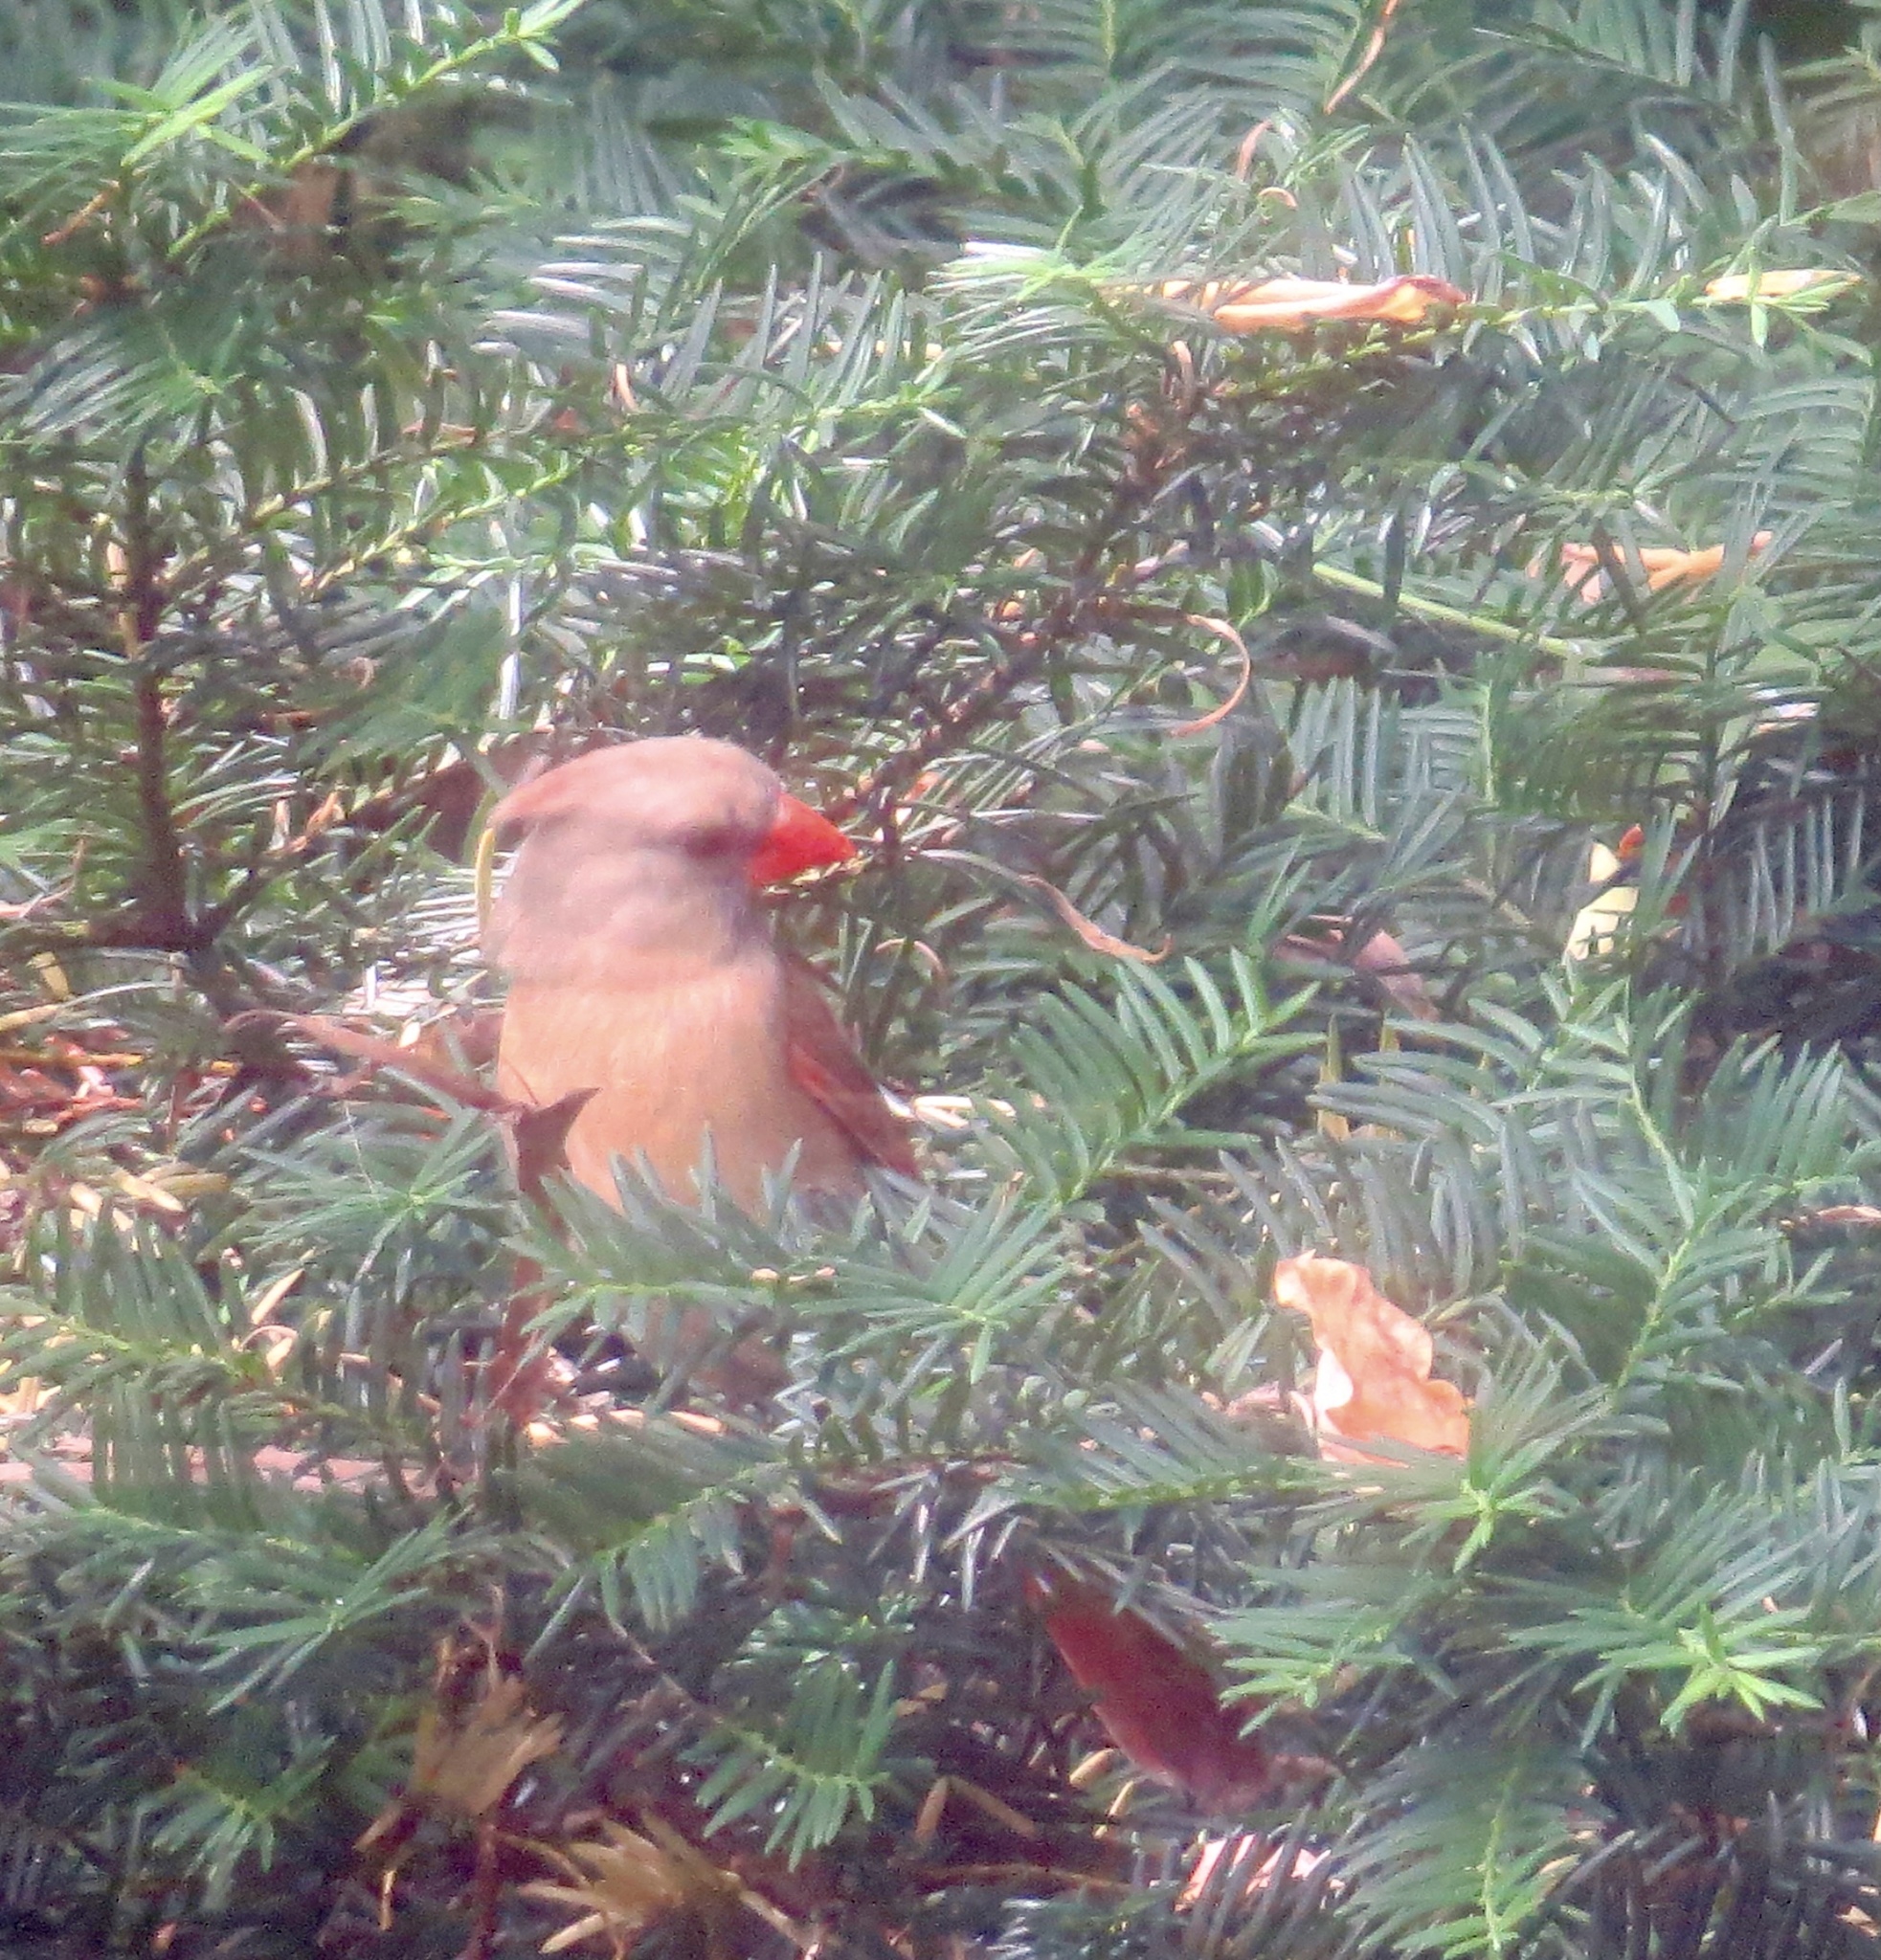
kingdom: Animalia
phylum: Chordata
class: Aves
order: Passeriformes
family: Cardinalidae
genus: Cardinalis
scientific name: Cardinalis cardinalis
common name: Northern cardinal
